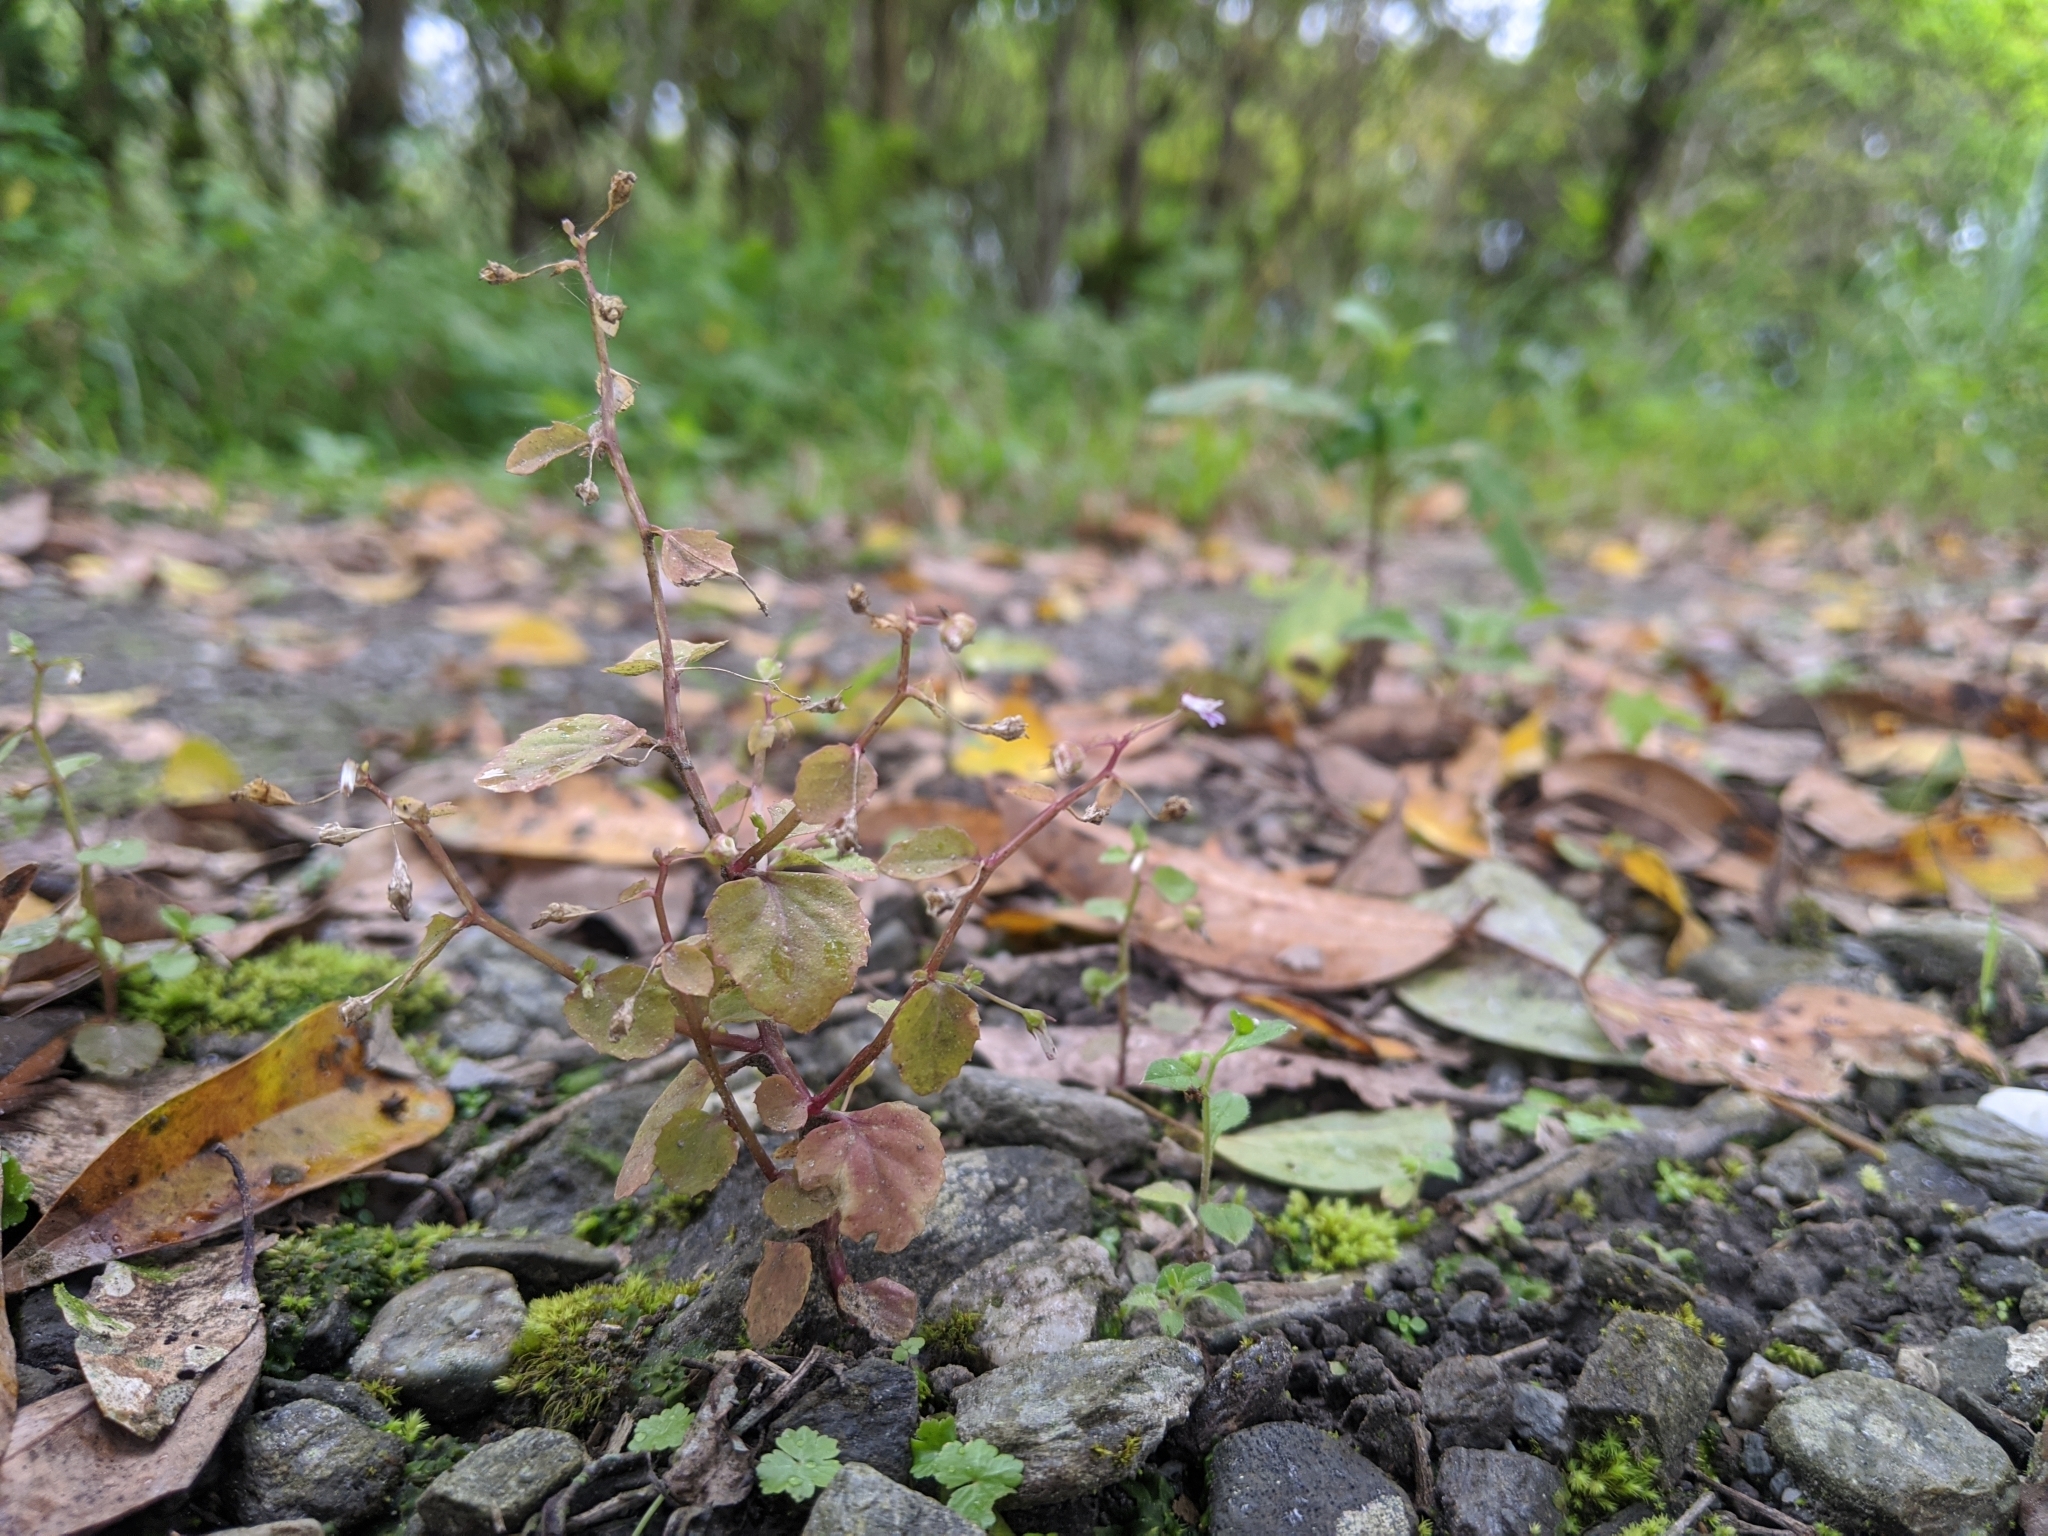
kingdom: Plantae
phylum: Tracheophyta
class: Magnoliopsida
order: Asterales
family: Campanulaceae
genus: Lobelia
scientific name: Lobelia heyneana
